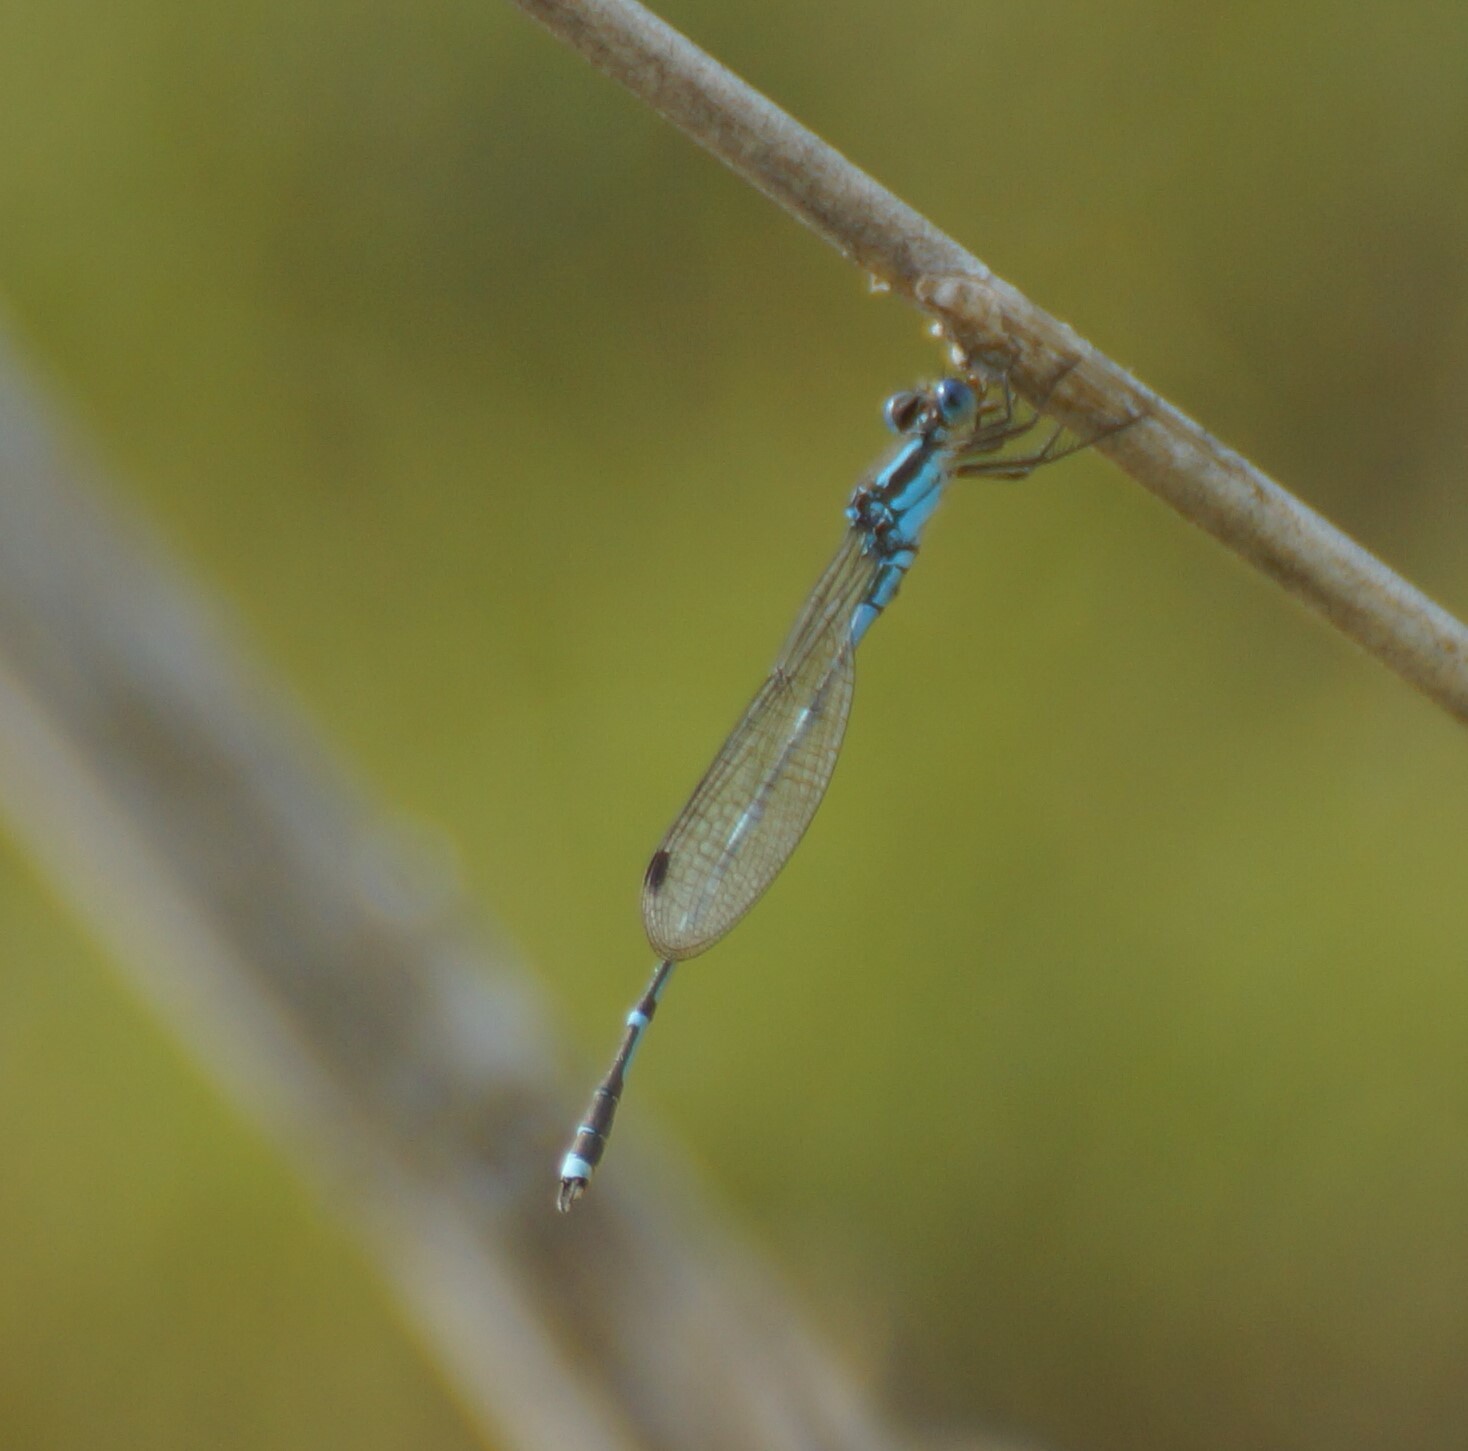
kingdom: Animalia
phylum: Arthropoda
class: Insecta
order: Odonata
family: Lestidae
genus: Austrolestes
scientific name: Austrolestes leda
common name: Wandering ringtail
